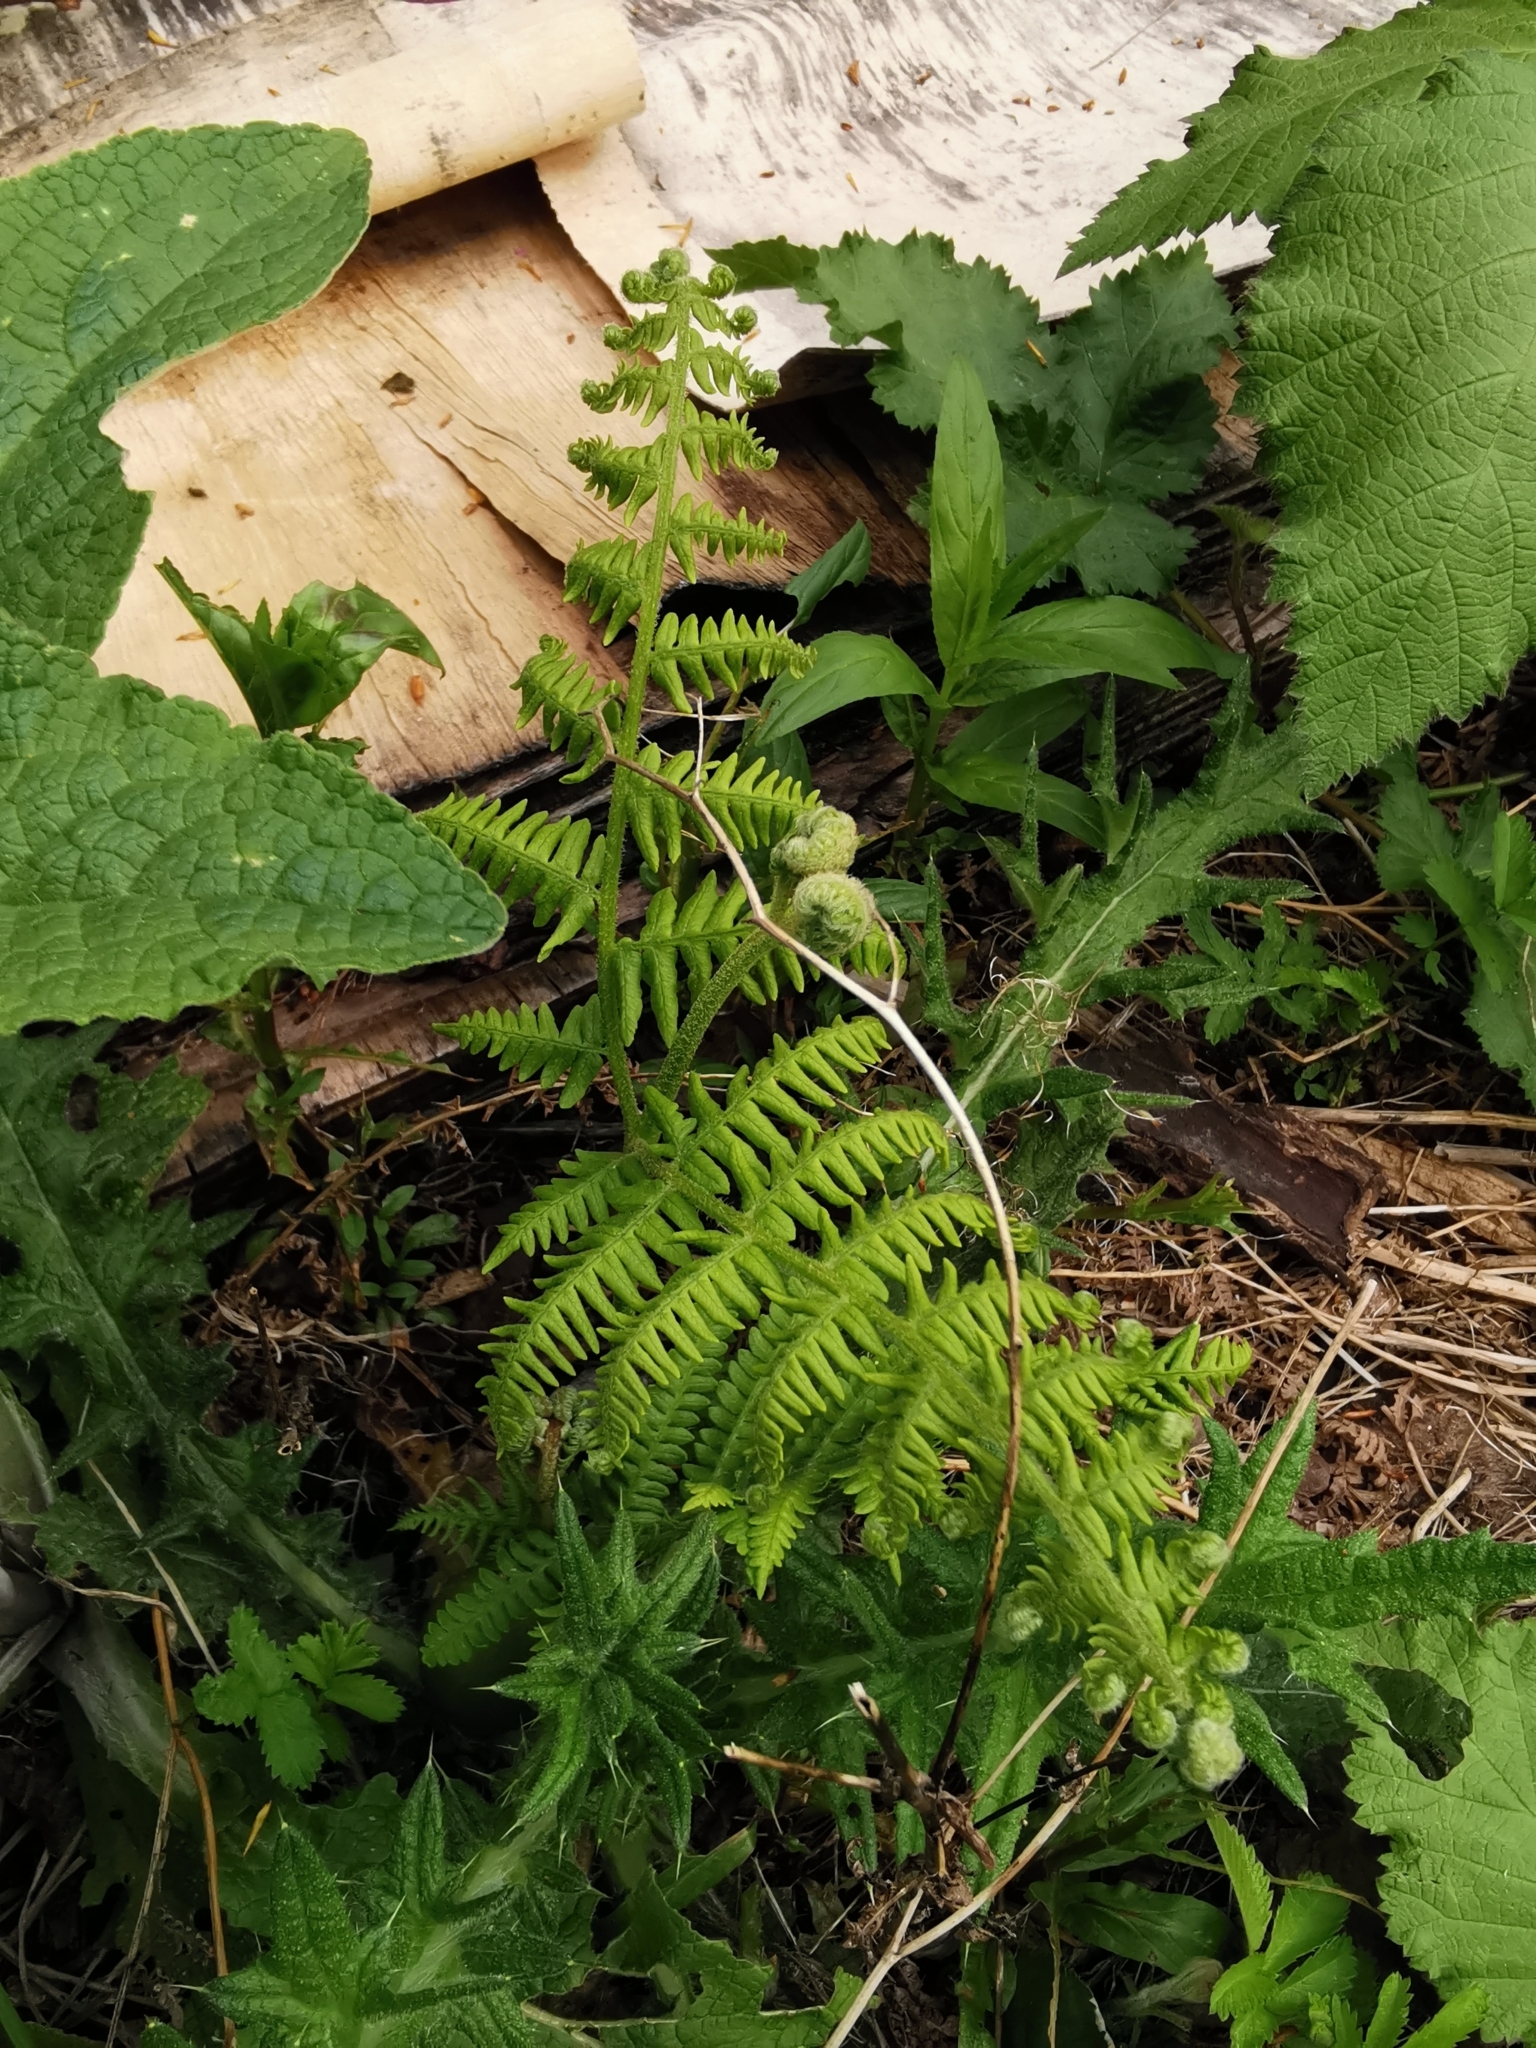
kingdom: Plantae
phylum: Tracheophyta
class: Polypodiopsida
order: Polypodiales
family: Dennstaedtiaceae
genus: Pteridium
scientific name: Pteridium aquilinum
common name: Bracken
